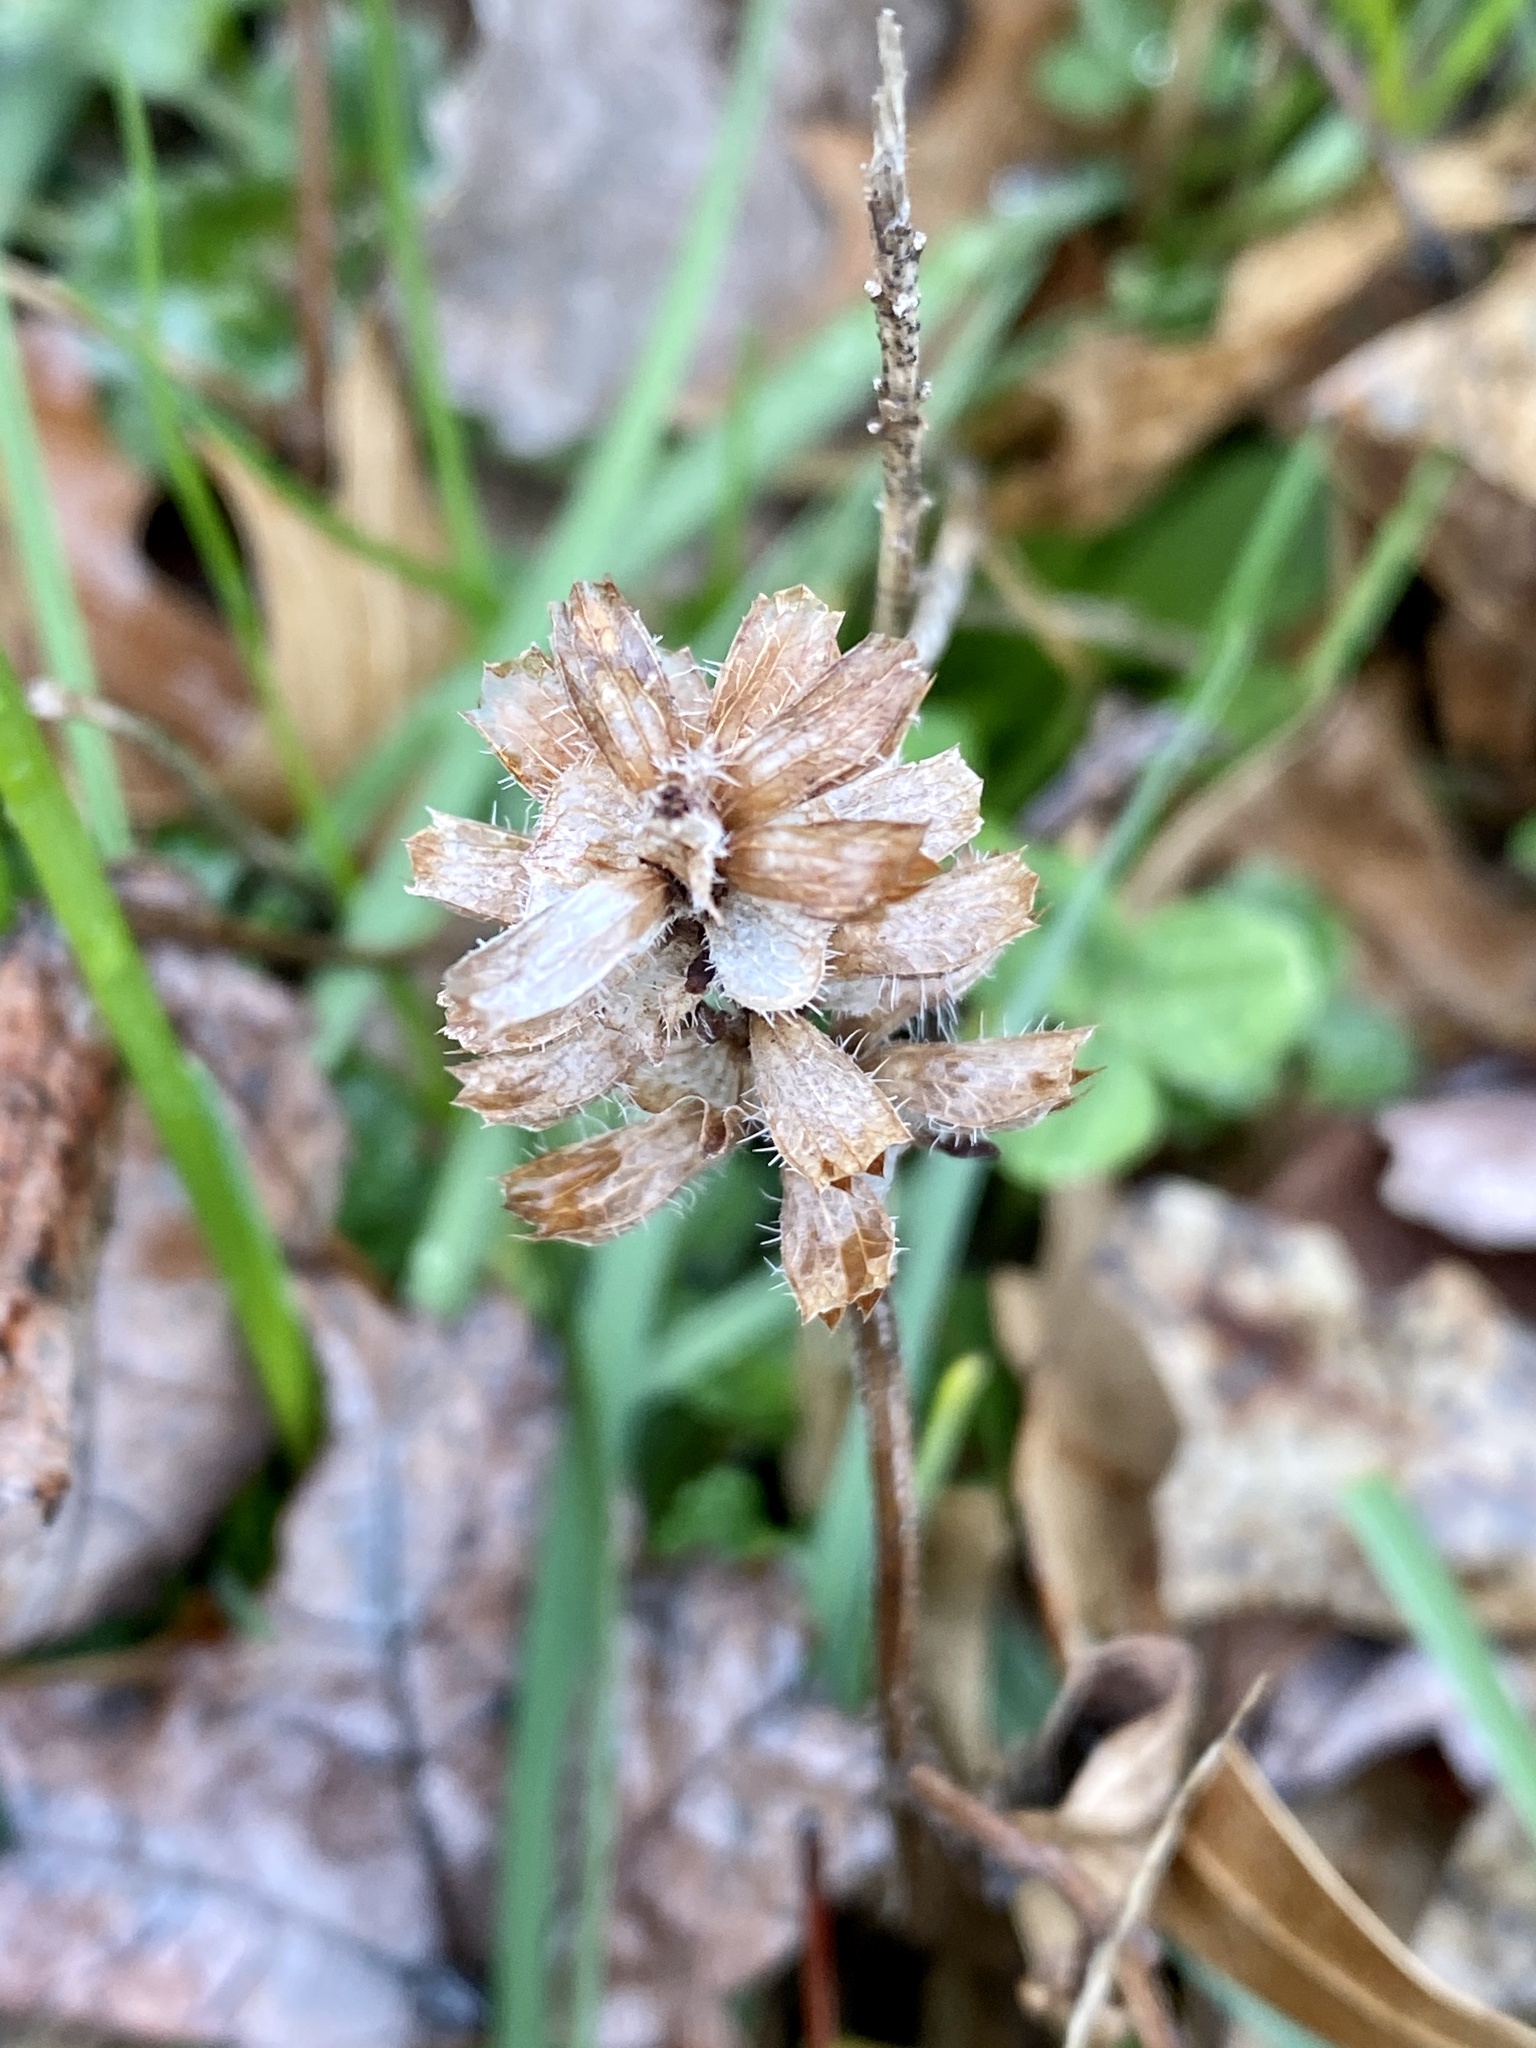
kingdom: Plantae
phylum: Tracheophyta
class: Magnoliopsida
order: Lamiales
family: Lamiaceae
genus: Prunella
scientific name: Prunella vulgaris
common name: Heal-all
